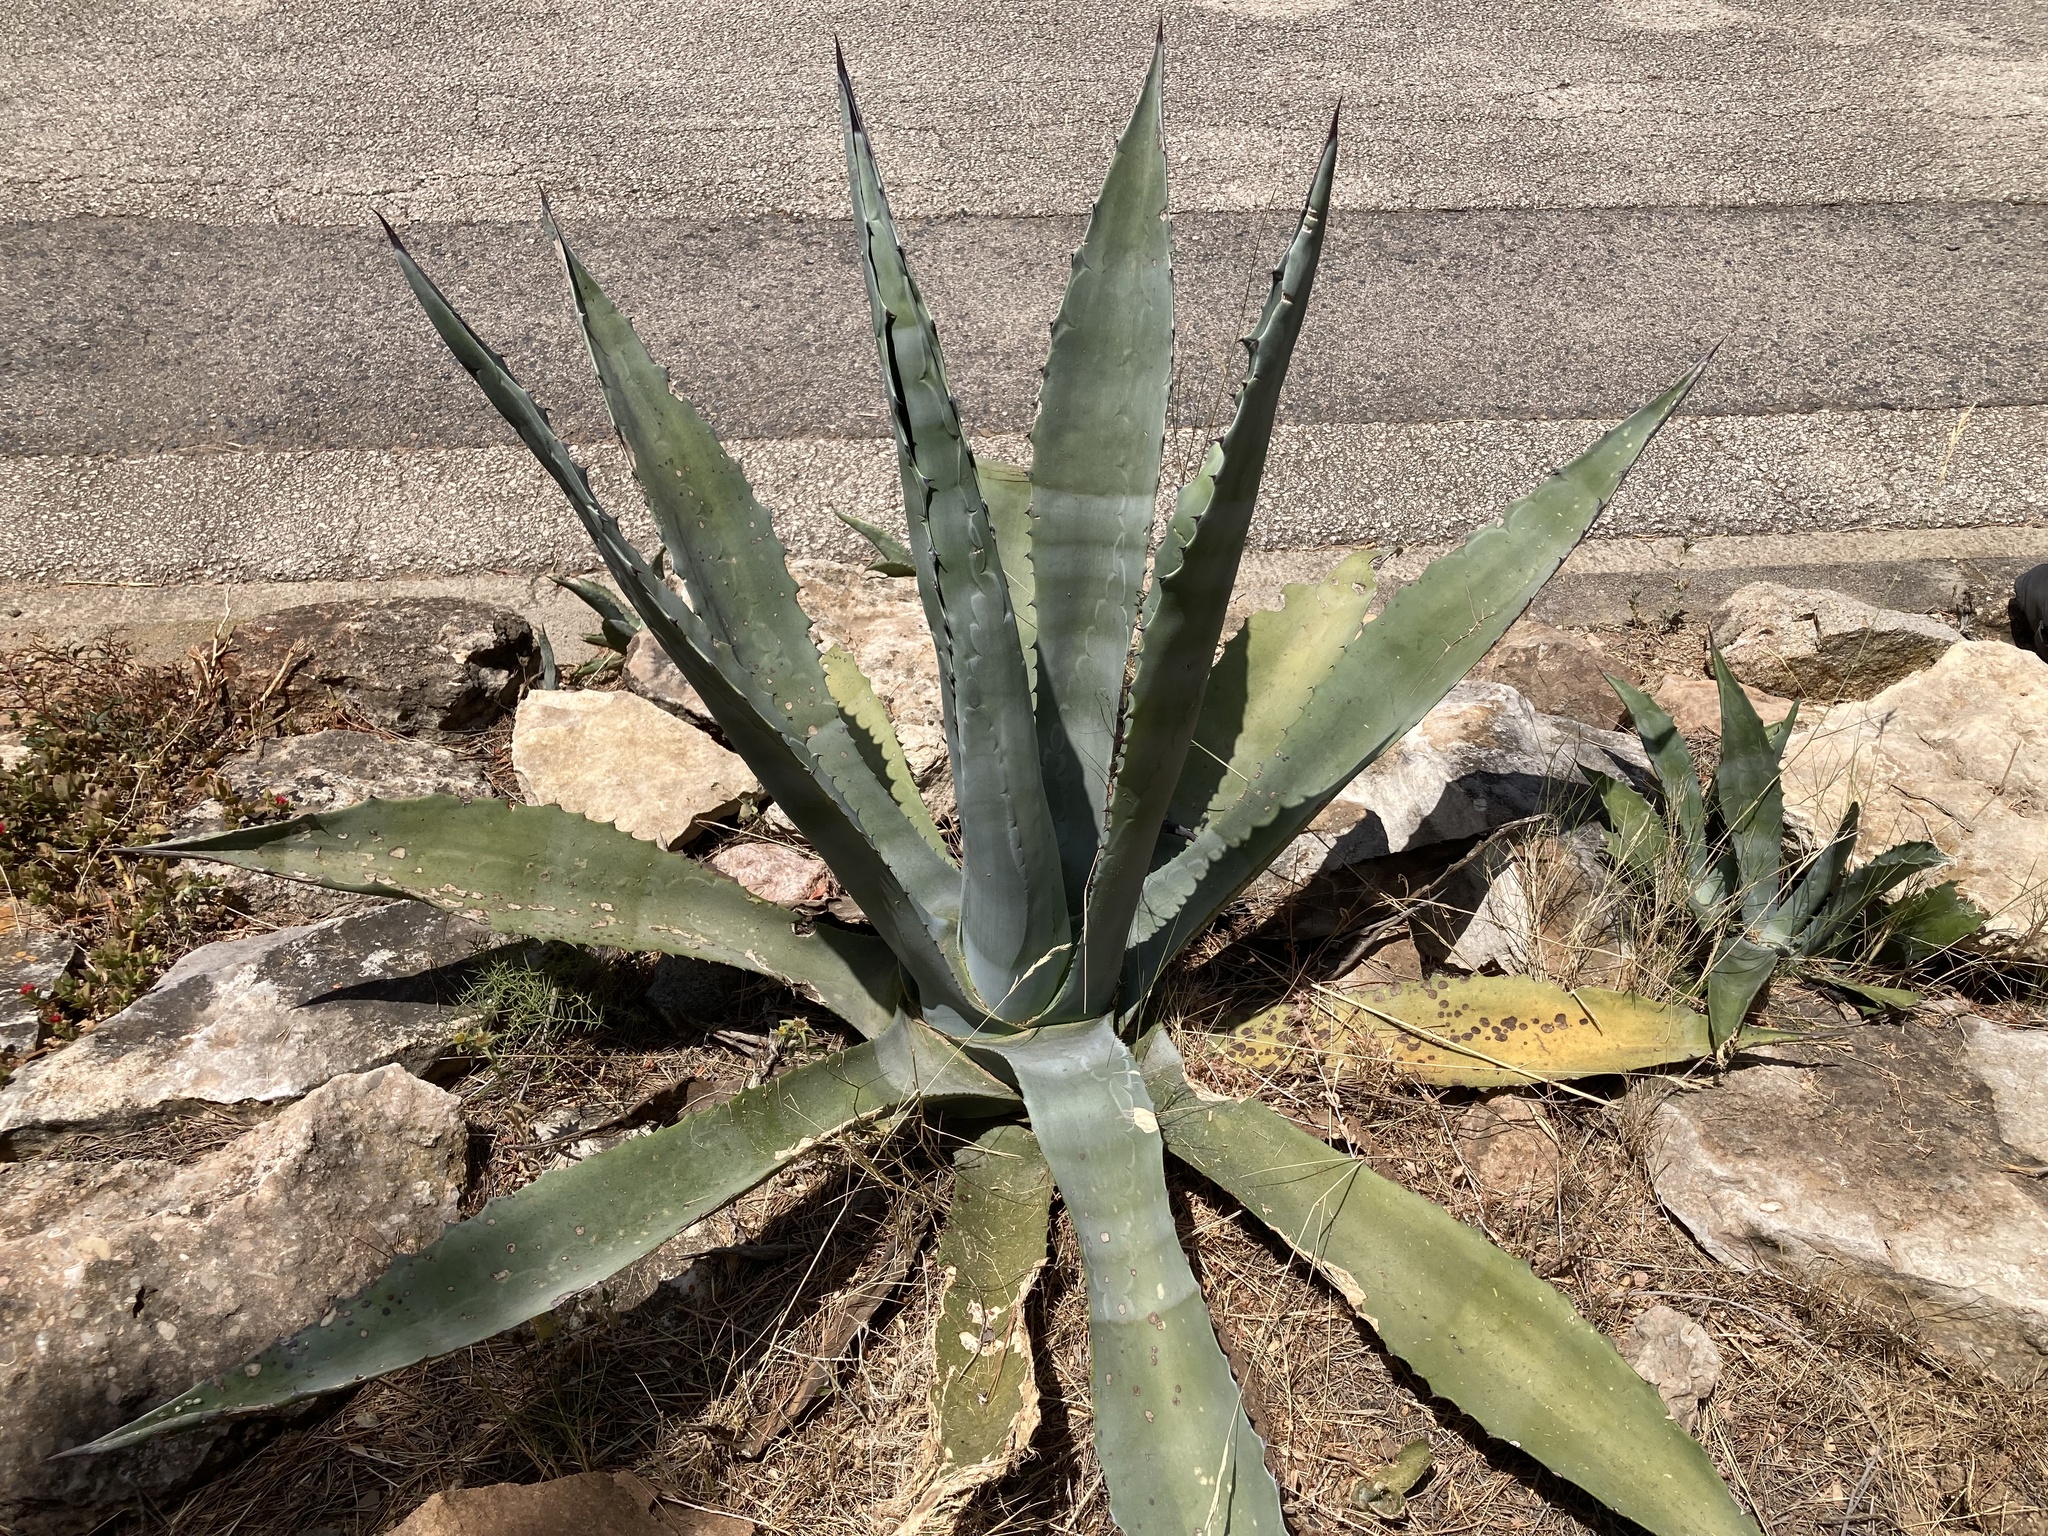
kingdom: Plantae
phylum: Tracheophyta
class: Liliopsida
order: Asparagales
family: Asparagaceae
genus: Agave
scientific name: Agave americana
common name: Centuryplant
